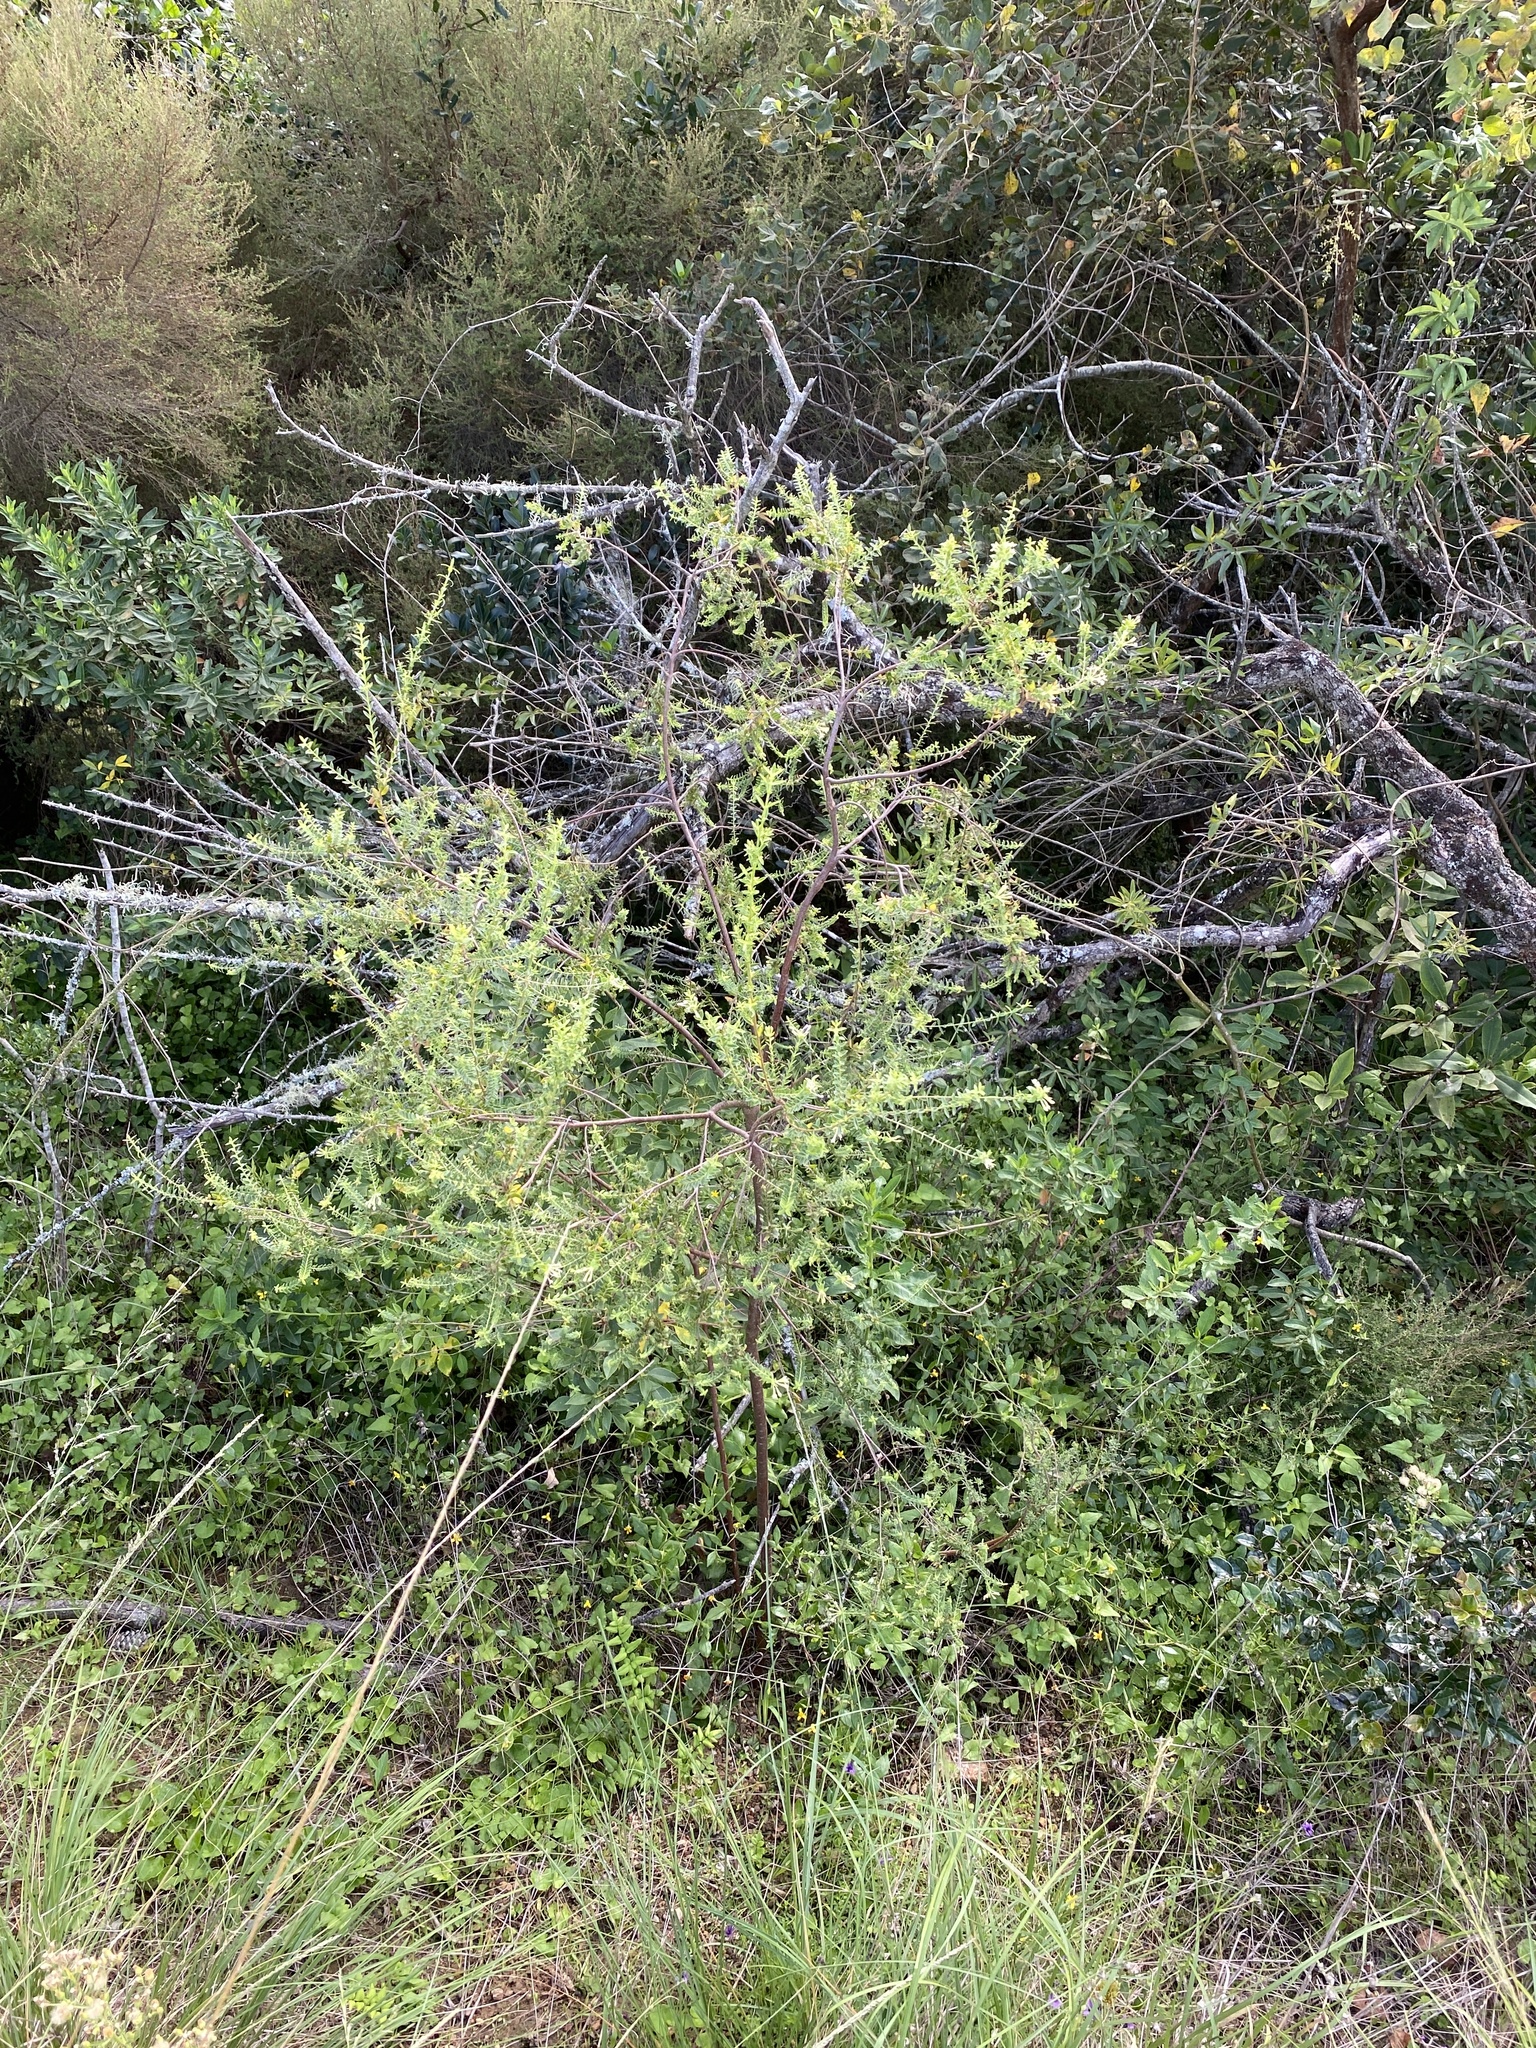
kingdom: Plantae
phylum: Tracheophyta
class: Magnoliopsida
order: Malvales
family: Thymelaeaceae
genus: Gnidia
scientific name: Gnidia caniflora
